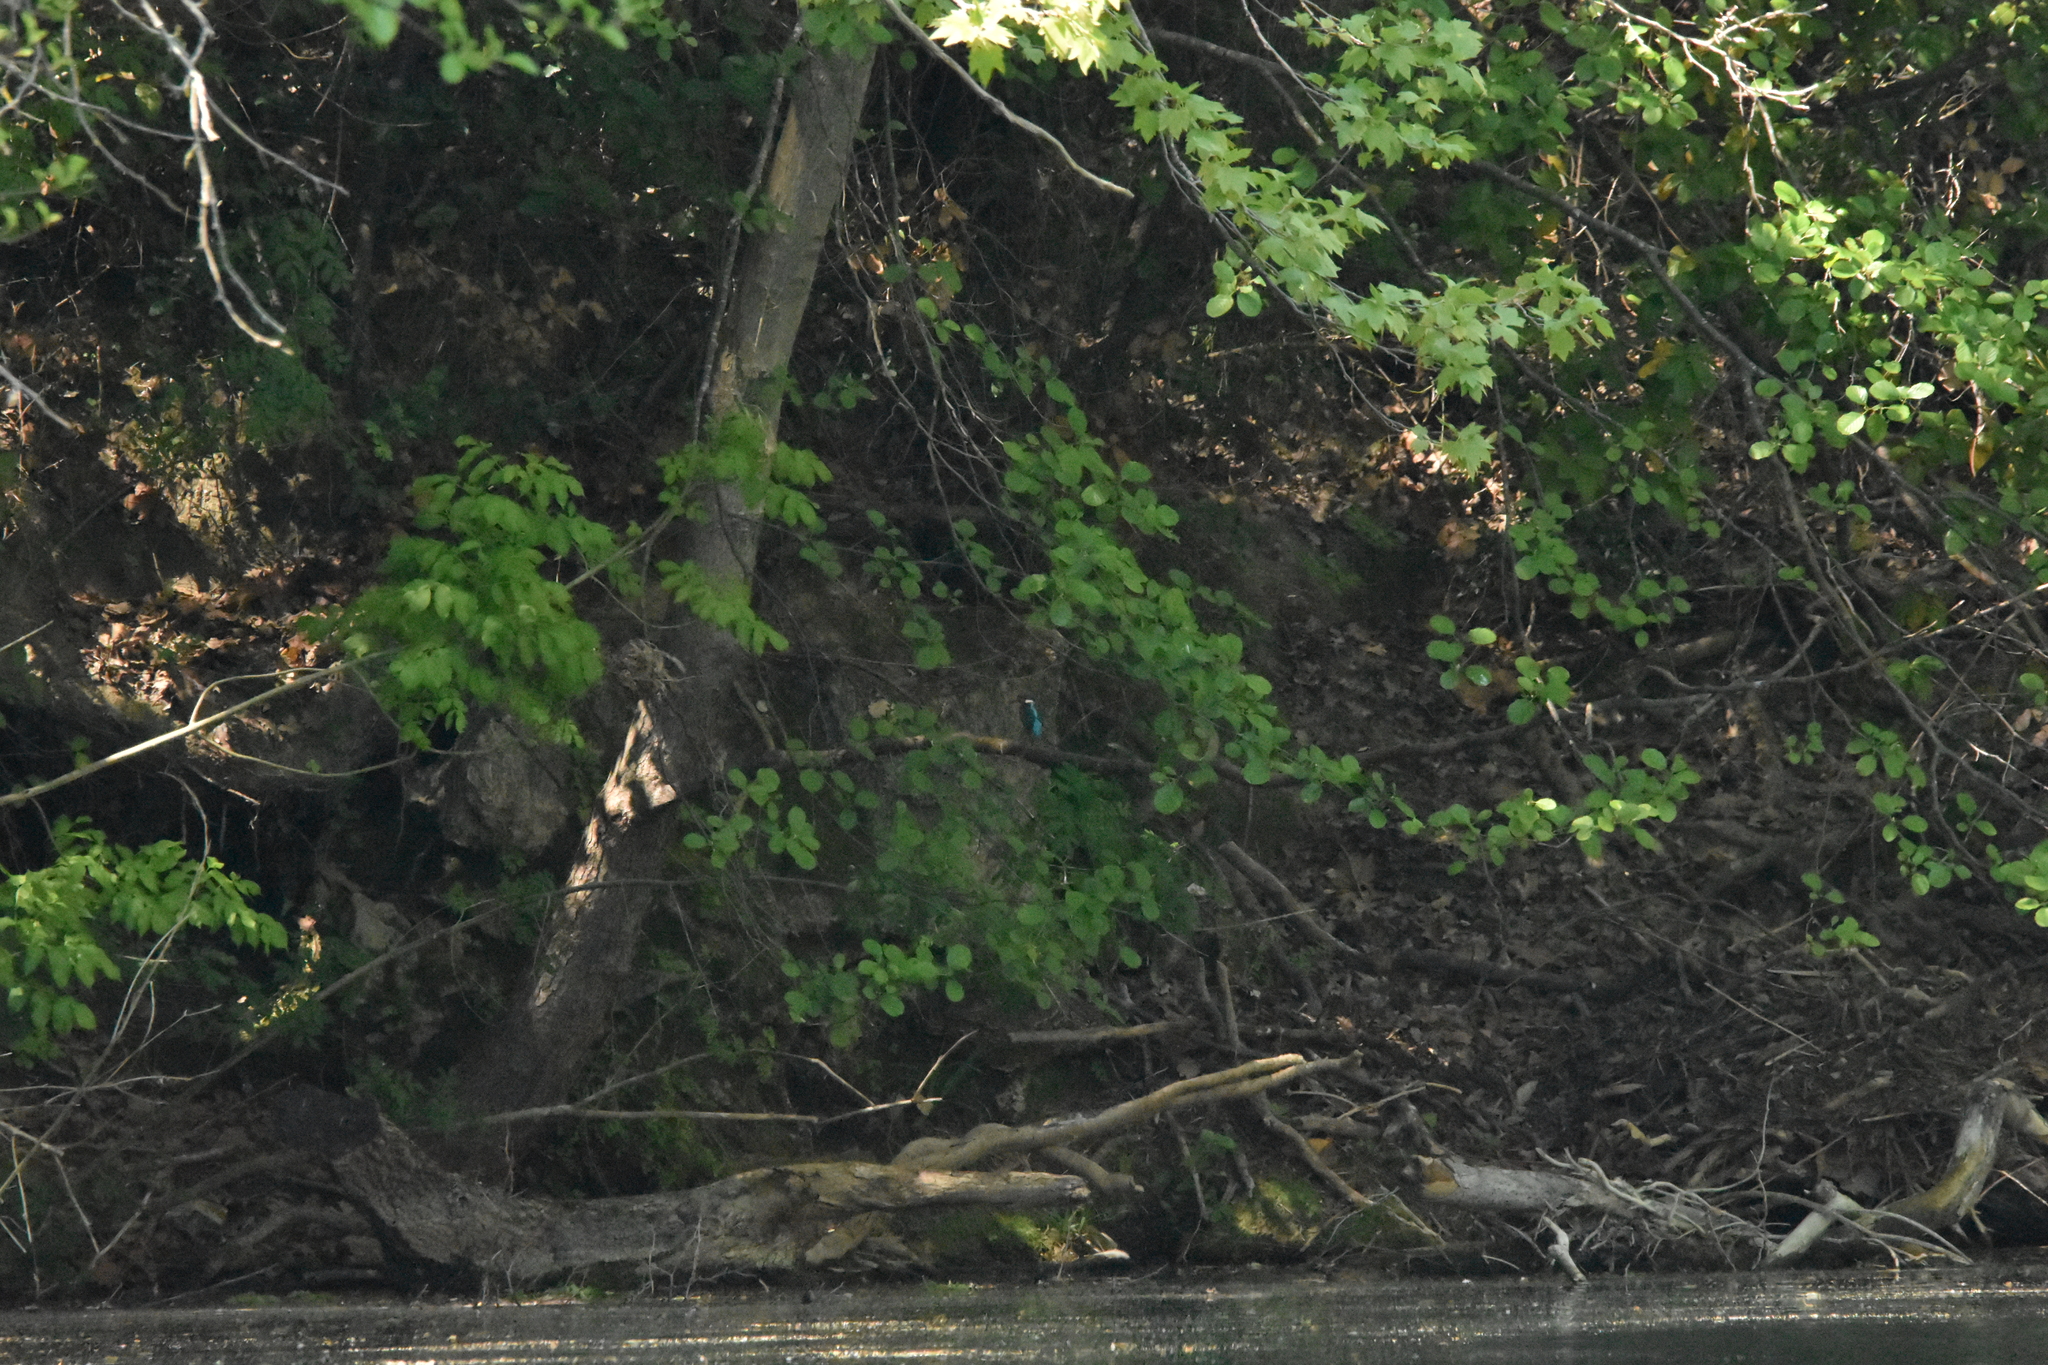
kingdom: Animalia
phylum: Chordata
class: Aves
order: Coraciiformes
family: Alcedinidae
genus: Alcedo
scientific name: Alcedo atthis
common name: Common kingfisher
